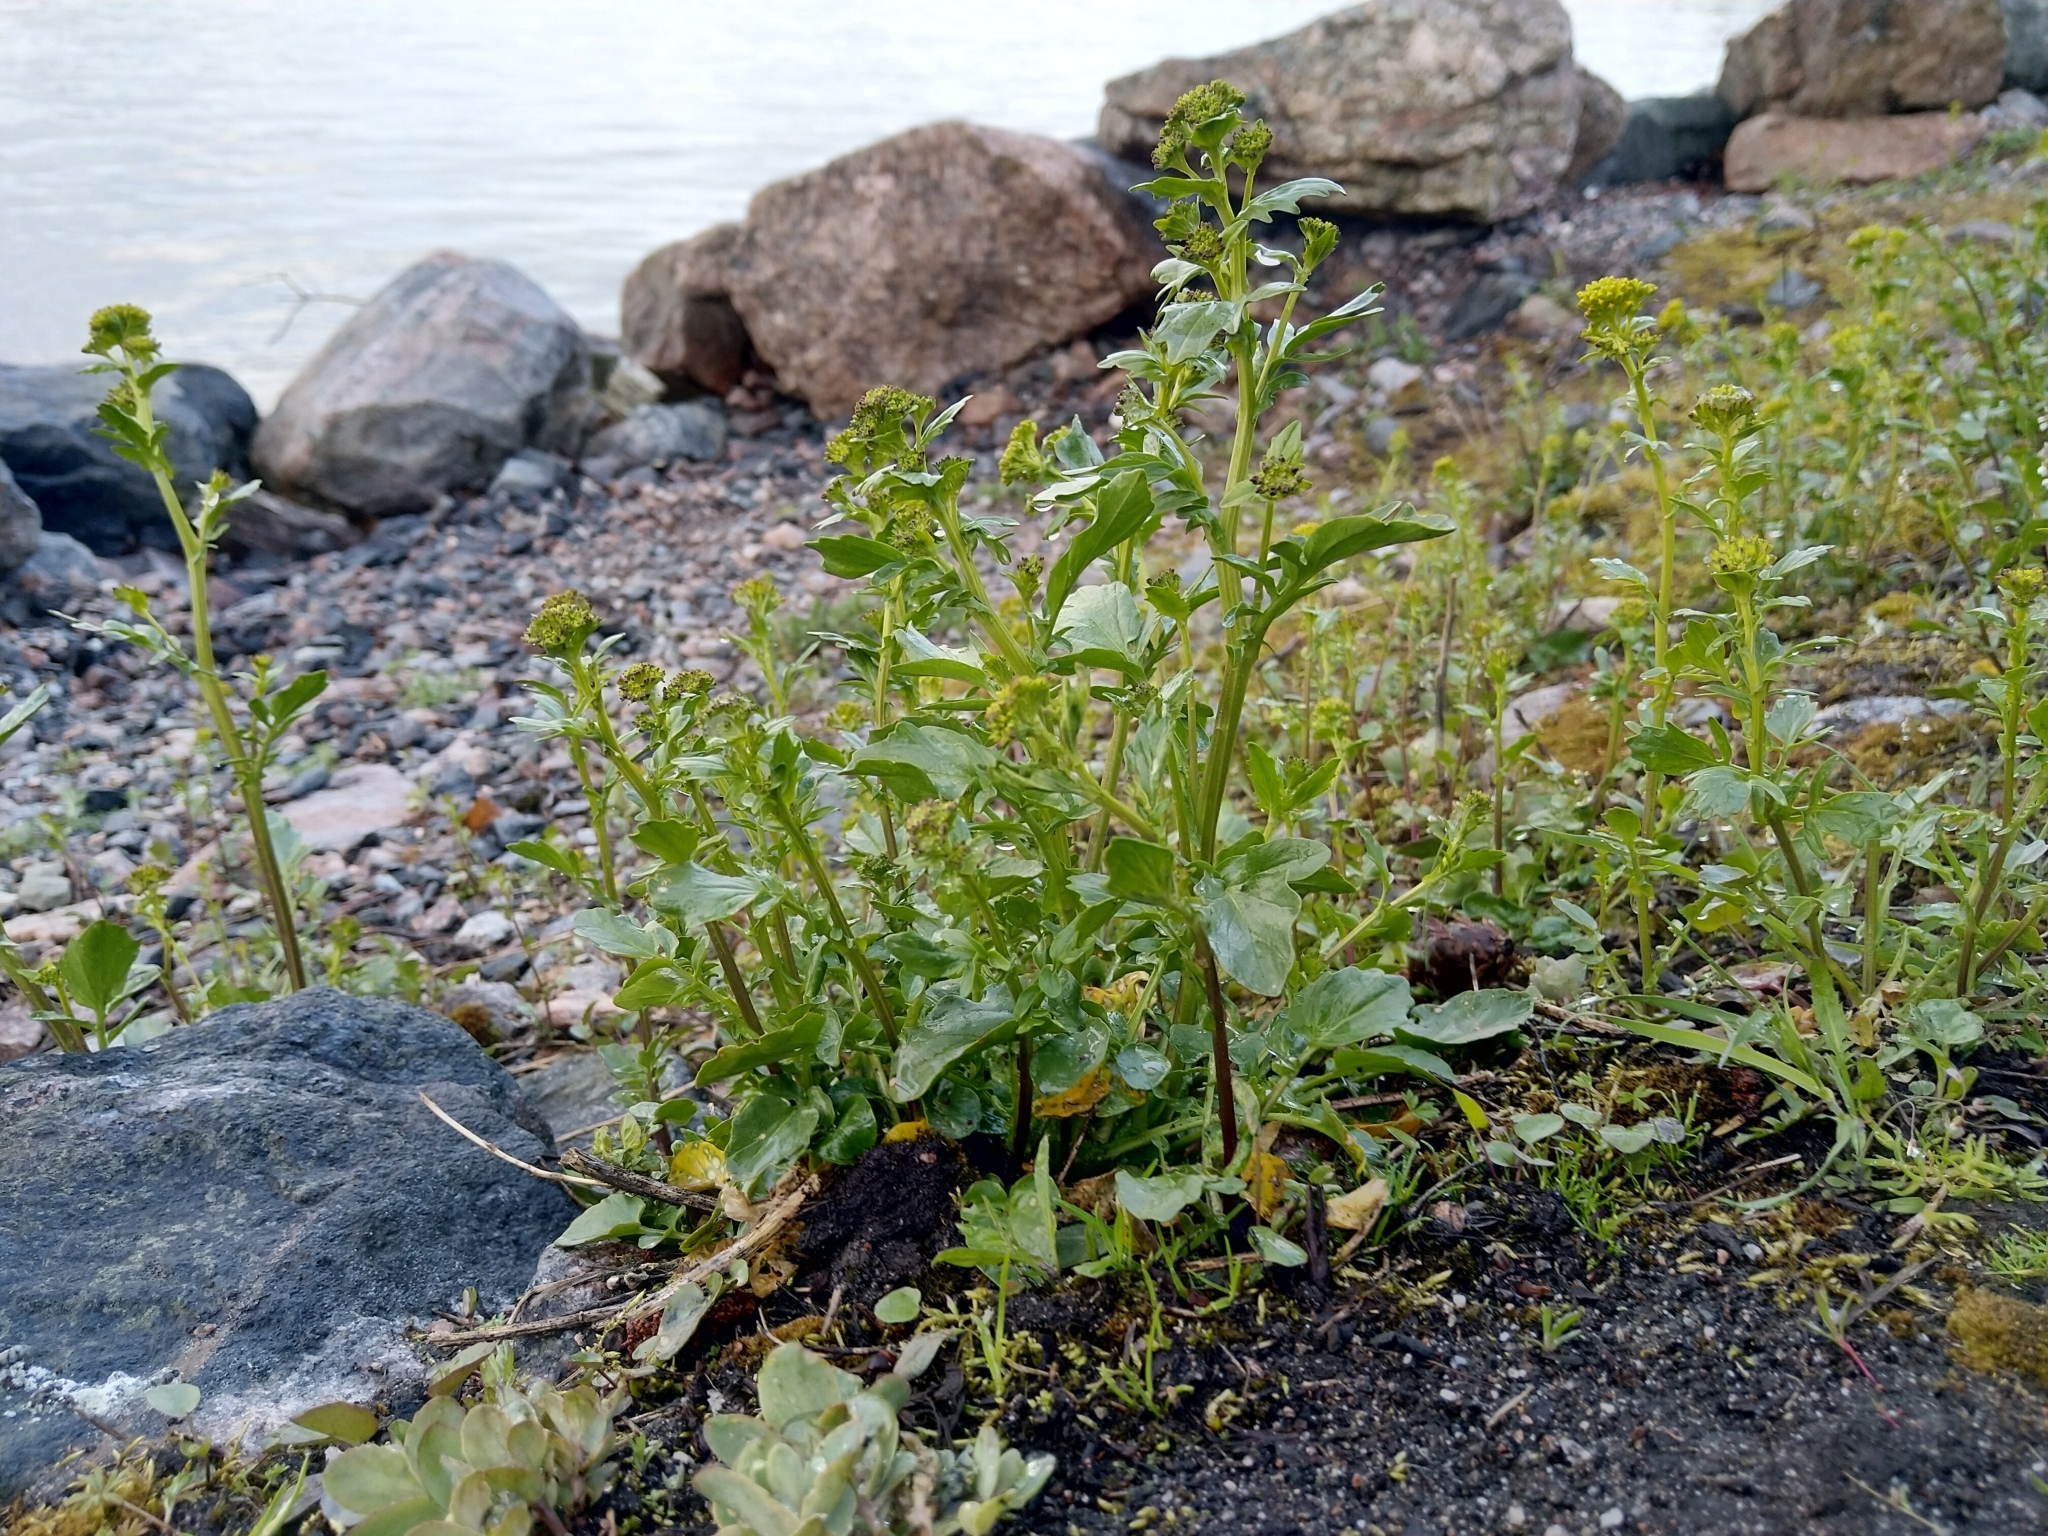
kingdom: Plantae
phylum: Tracheophyta
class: Magnoliopsida
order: Brassicales
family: Brassicaceae
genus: Barbarea
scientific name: Barbarea vulgaris
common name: Cressy-greens
